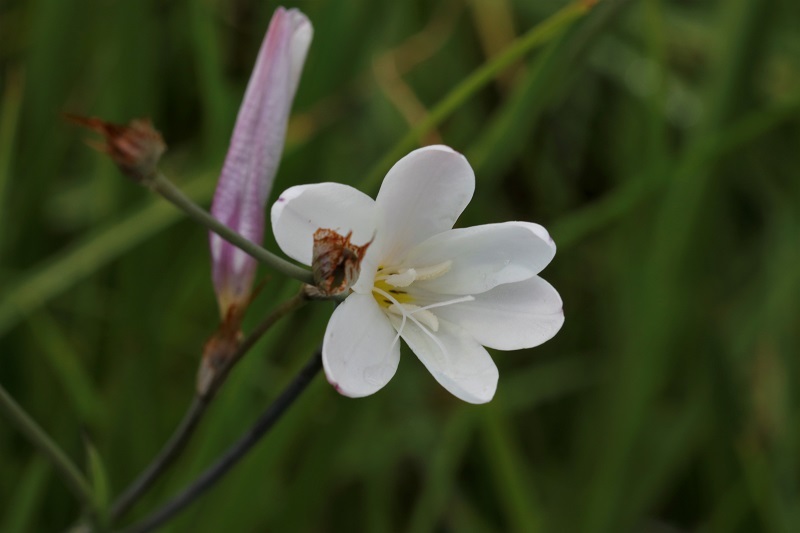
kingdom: Plantae
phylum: Tracheophyta
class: Liliopsida
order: Asparagales
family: Iridaceae
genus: Sparaxis
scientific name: Sparaxis bulbifera
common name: Harlequin-flower
